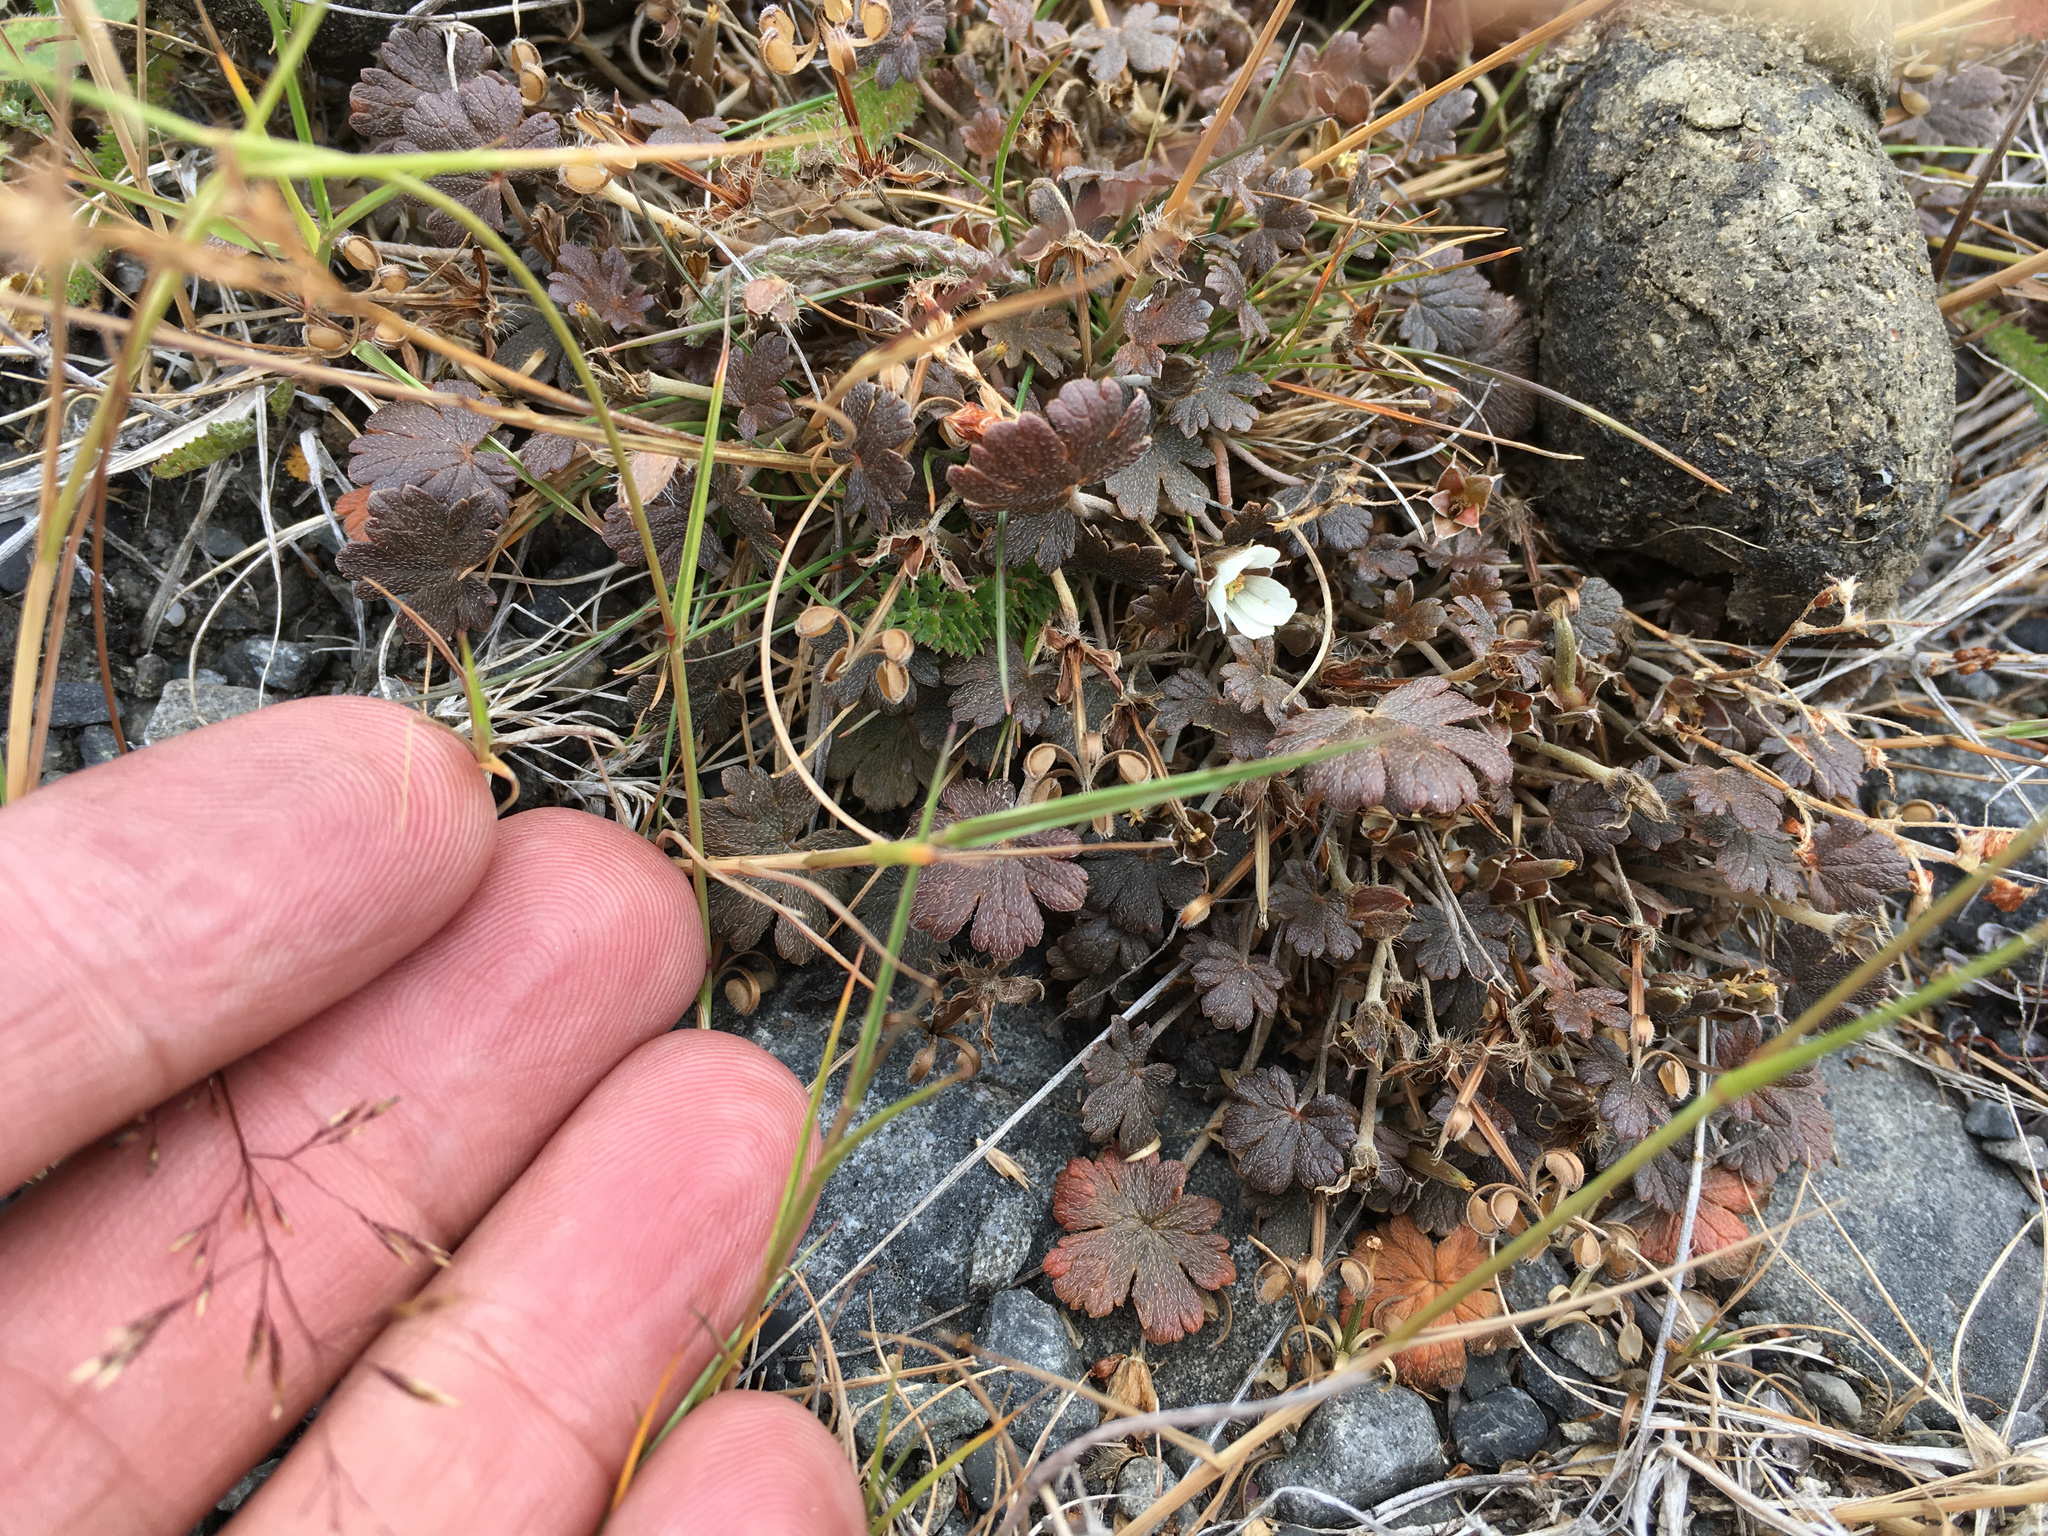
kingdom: Plantae
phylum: Tracheophyta
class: Magnoliopsida
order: Geraniales
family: Geraniaceae
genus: Geranium
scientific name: Geranium brevicaule
